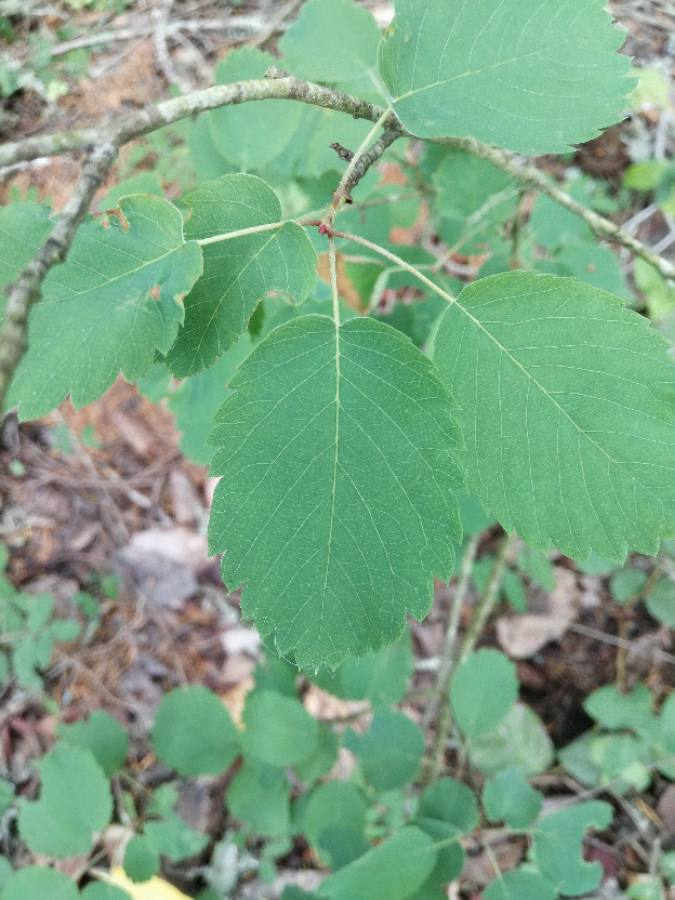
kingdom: Plantae
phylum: Tracheophyta
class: Magnoliopsida
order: Rosales
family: Rosaceae
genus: Amelanchier
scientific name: Amelanchier alnifolia
